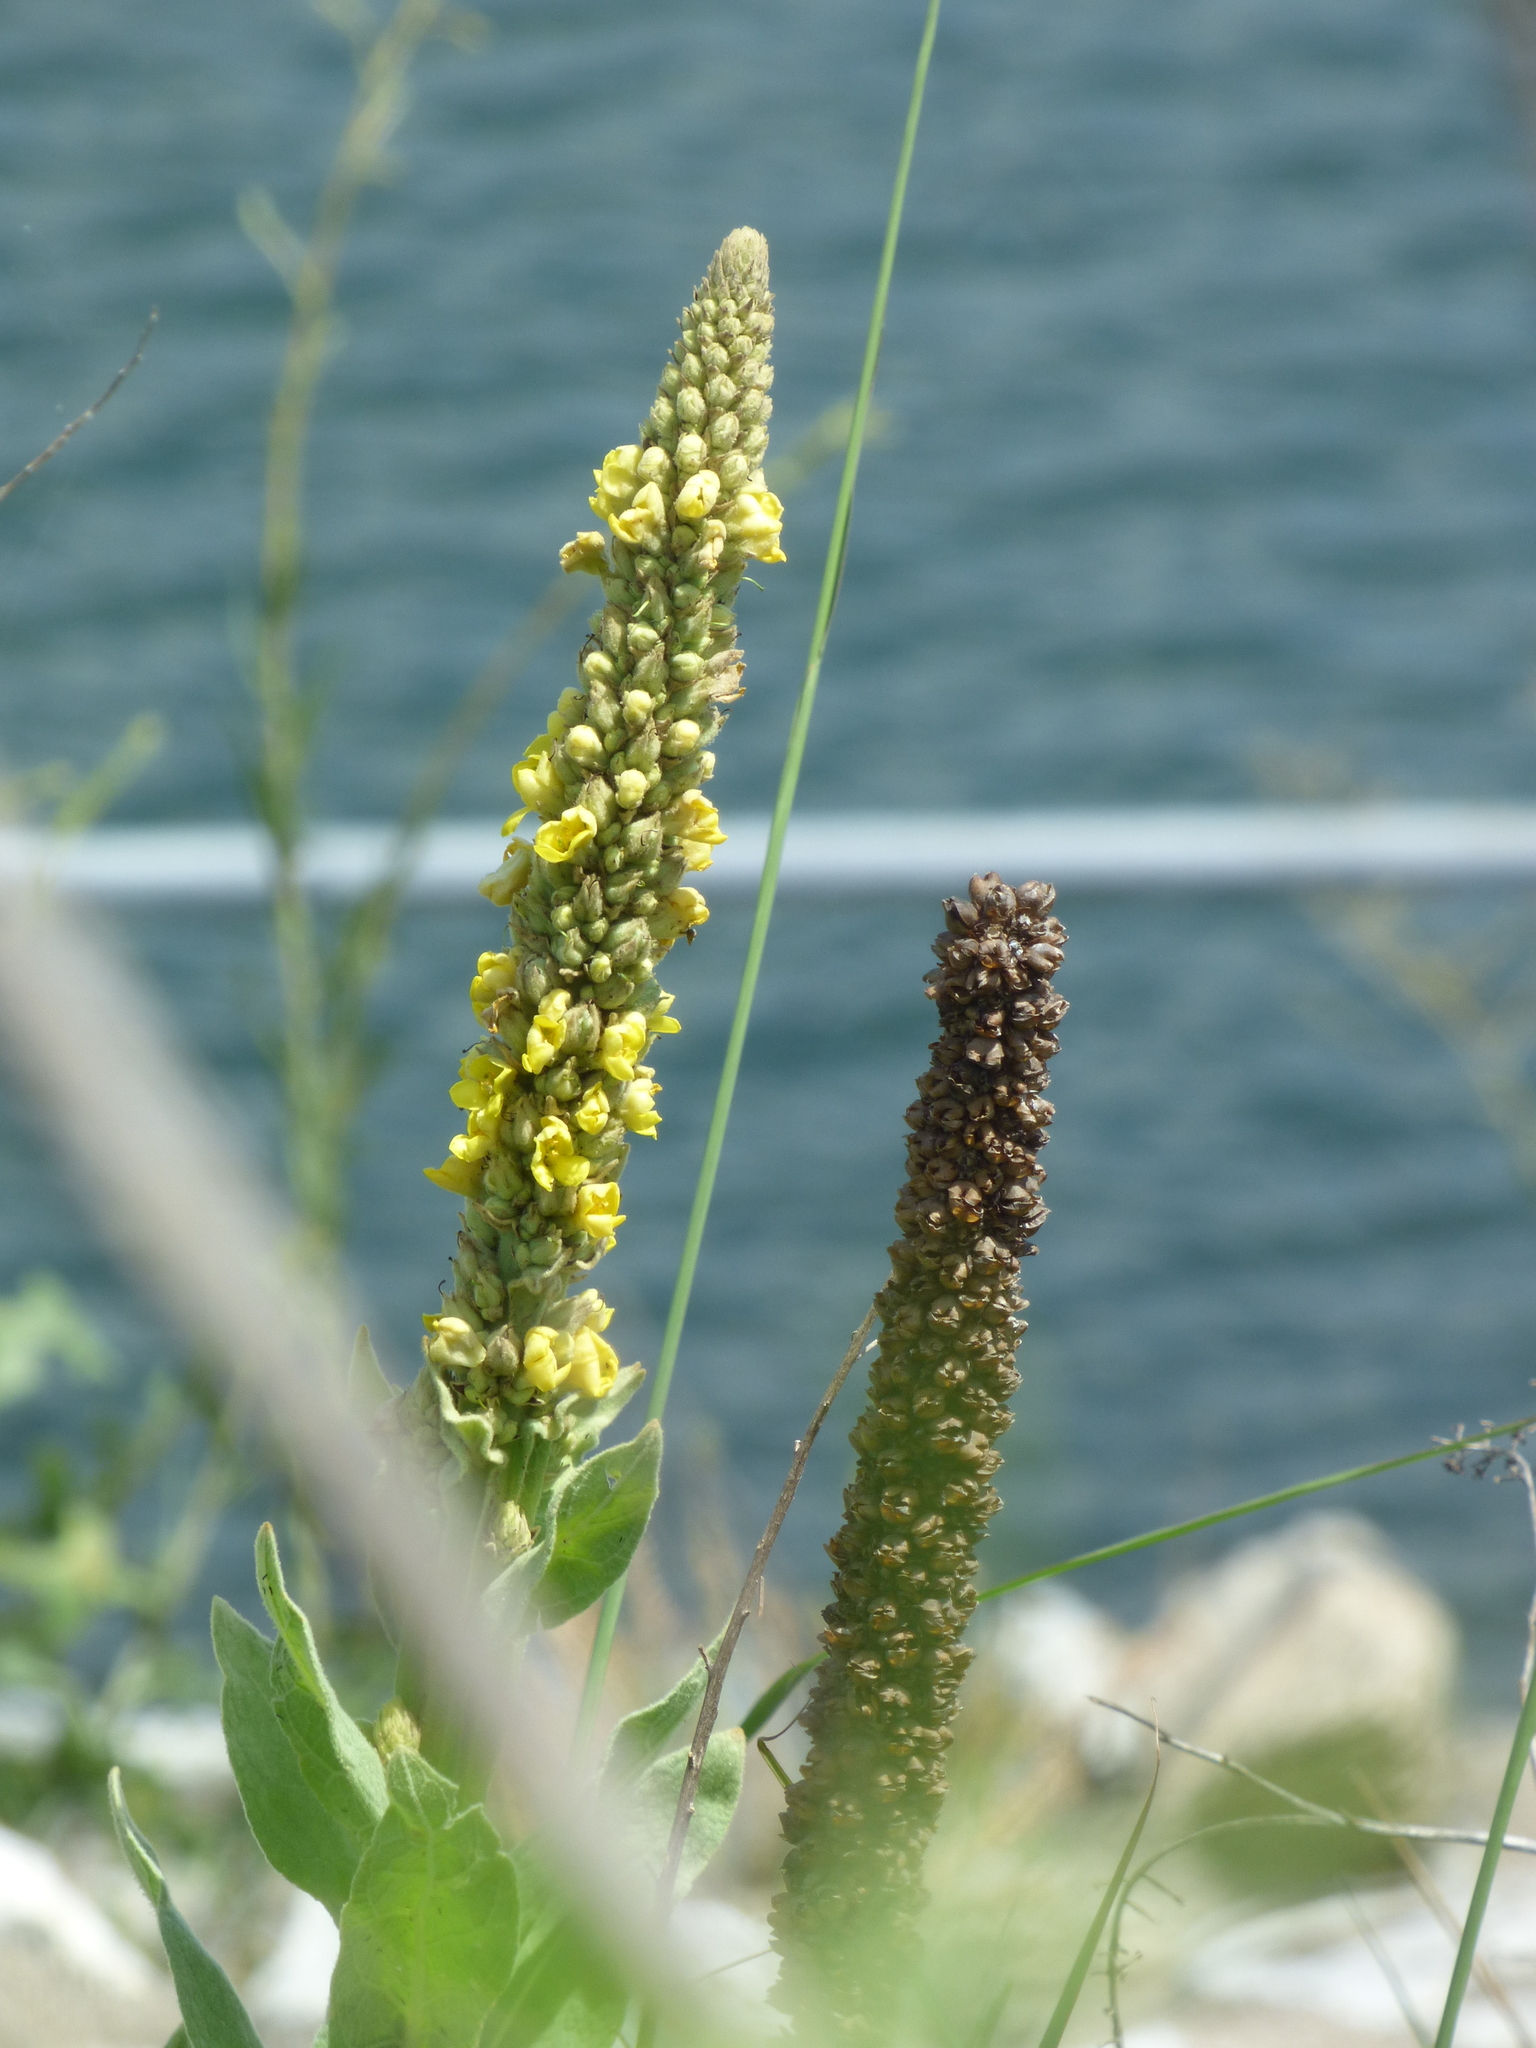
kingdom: Plantae
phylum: Tracheophyta
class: Magnoliopsida
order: Lamiales
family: Scrophulariaceae
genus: Verbascum
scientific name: Verbascum thapsus
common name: Common mullein
